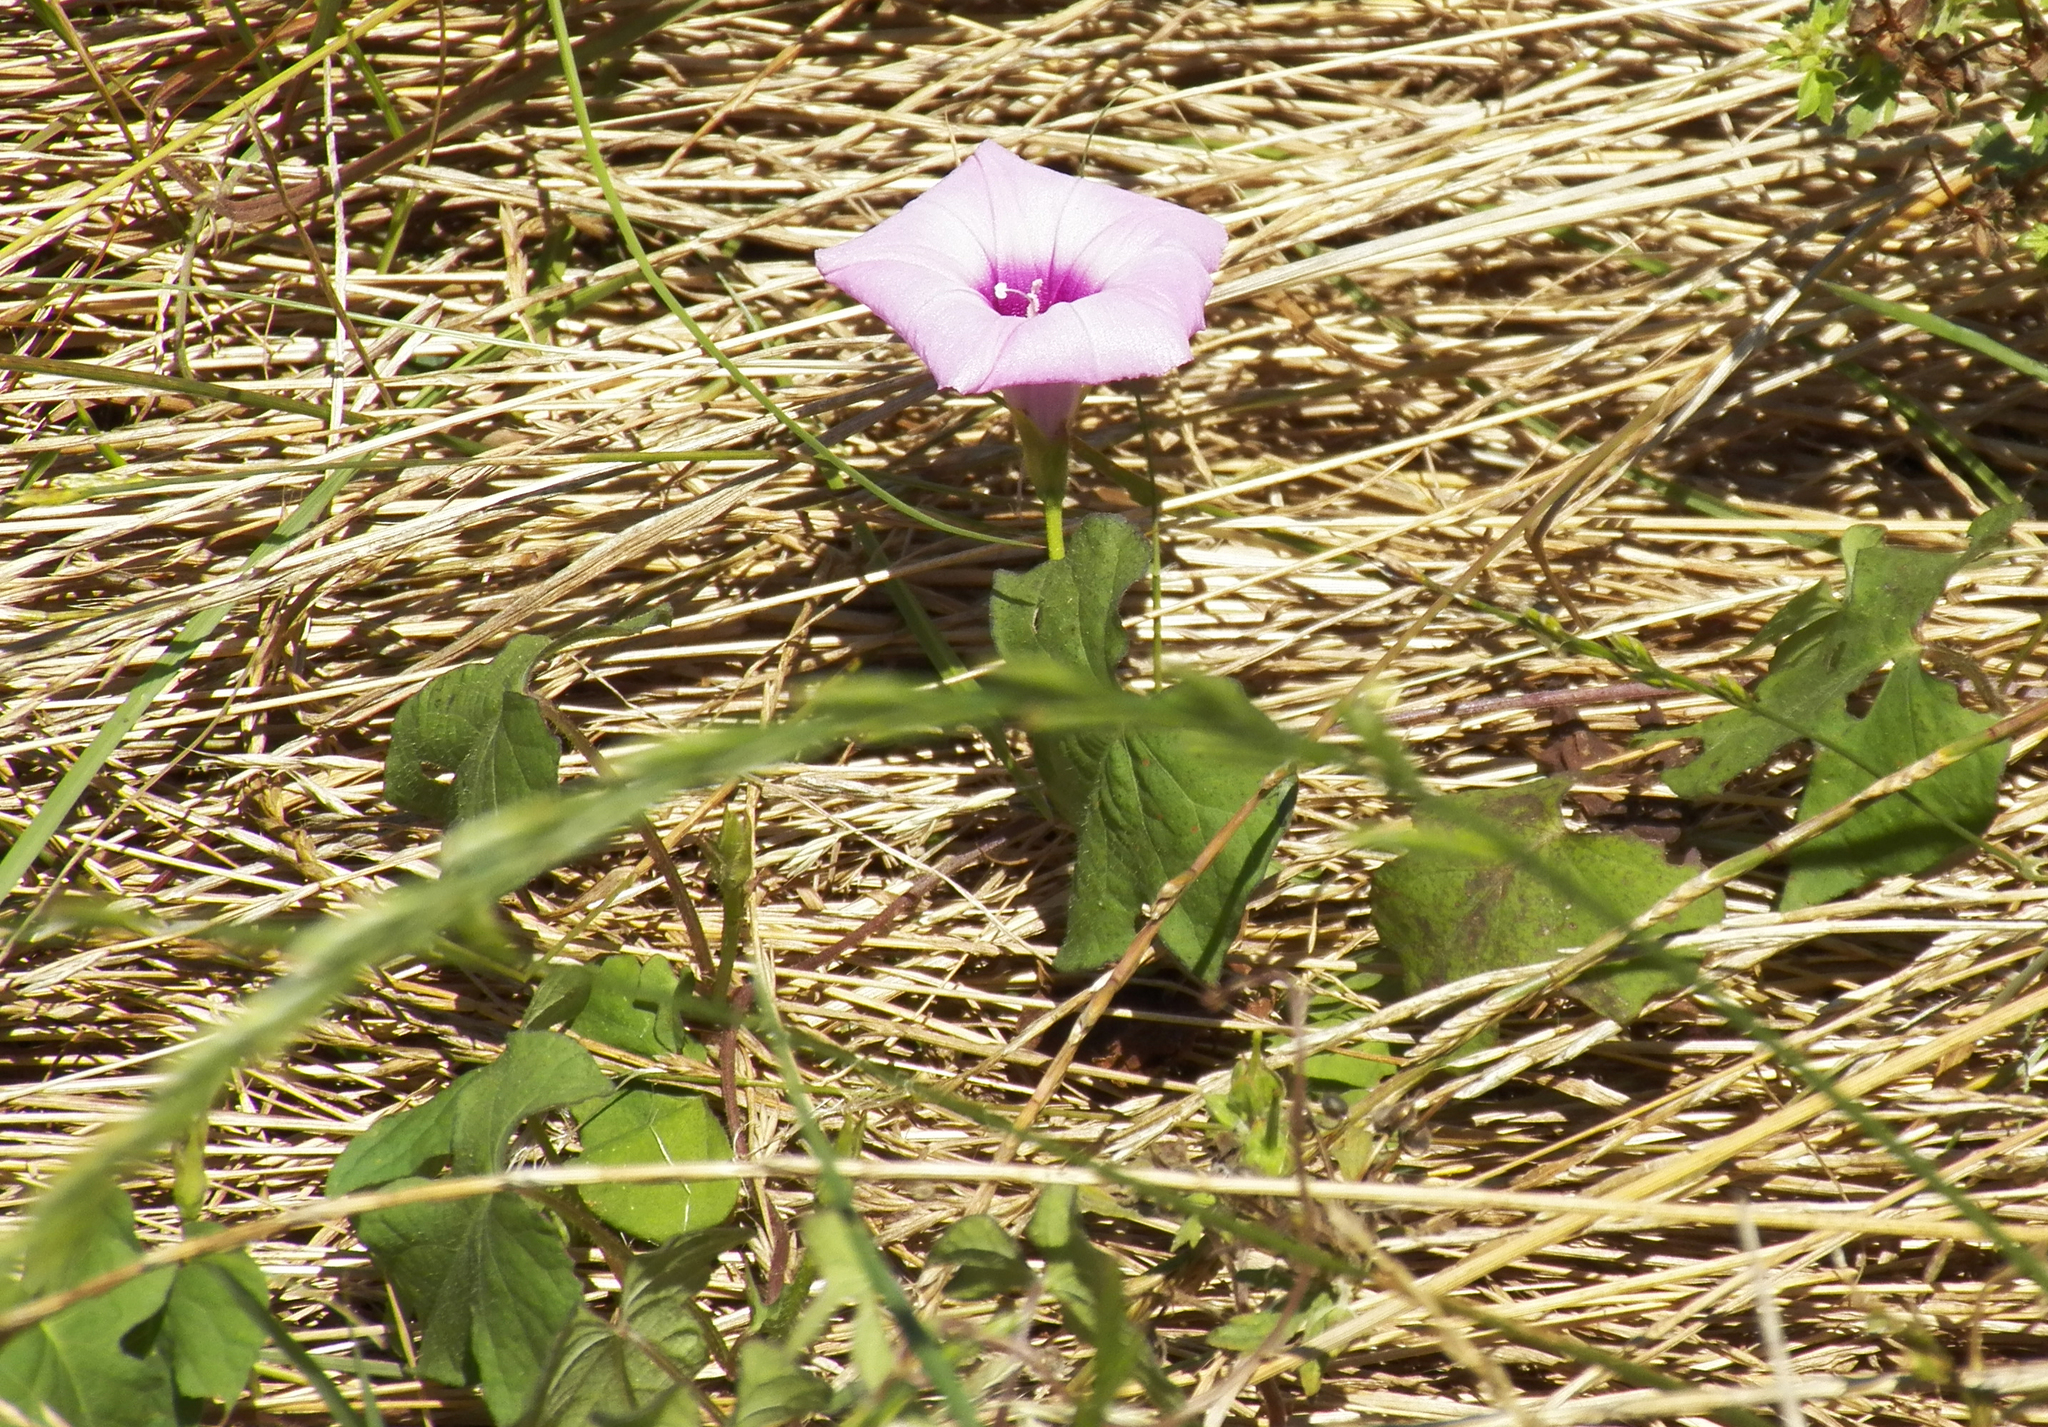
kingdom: Plantae
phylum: Tracheophyta
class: Magnoliopsida
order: Solanales
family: Convolvulaceae
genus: Ipomoea
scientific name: Ipomoea cordatotriloba
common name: Cotton morning glory
